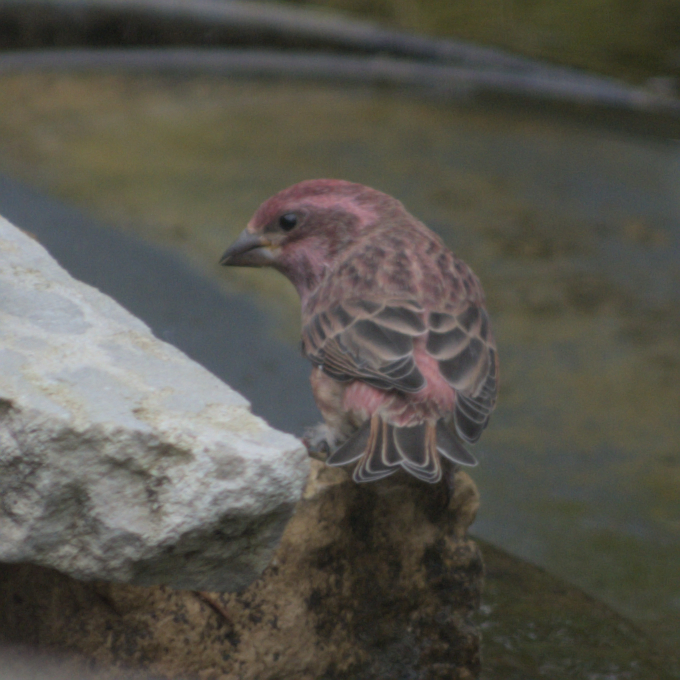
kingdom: Animalia
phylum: Chordata
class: Aves
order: Passeriformes
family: Fringillidae
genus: Haemorhous
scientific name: Haemorhous purpureus
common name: Purple finch
